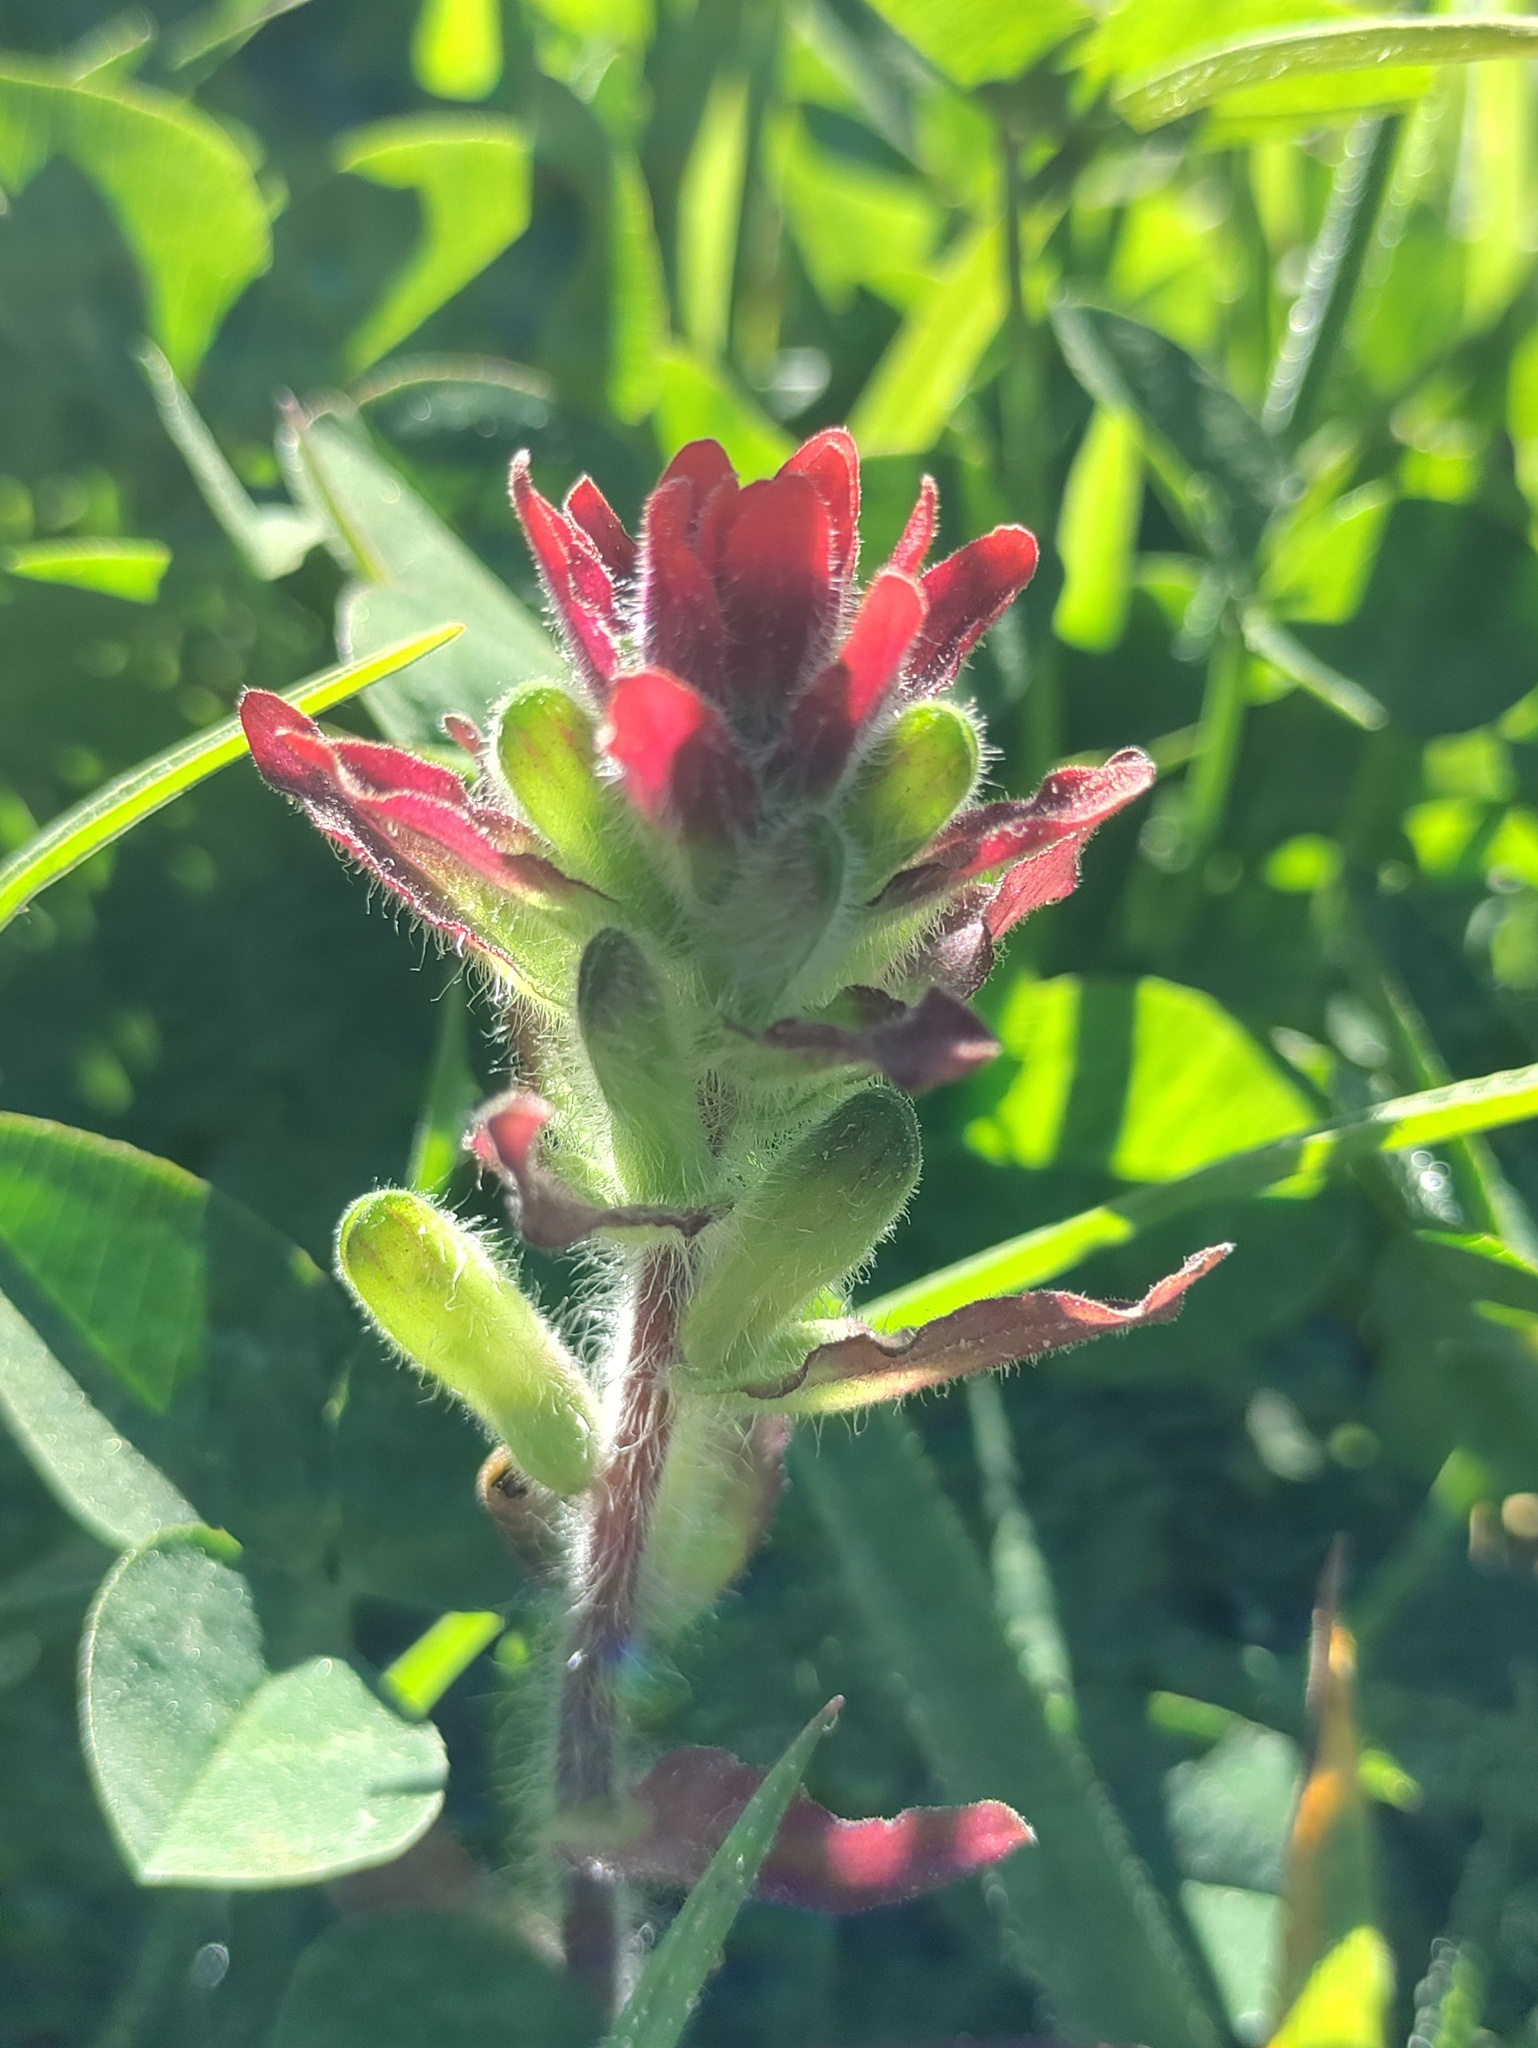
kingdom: Plantae
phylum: Tracheophyta
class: Magnoliopsida
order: Lamiales
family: Orobanchaceae
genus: Castilleja
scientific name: Castilleja arvensis
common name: Indian paintbrush
